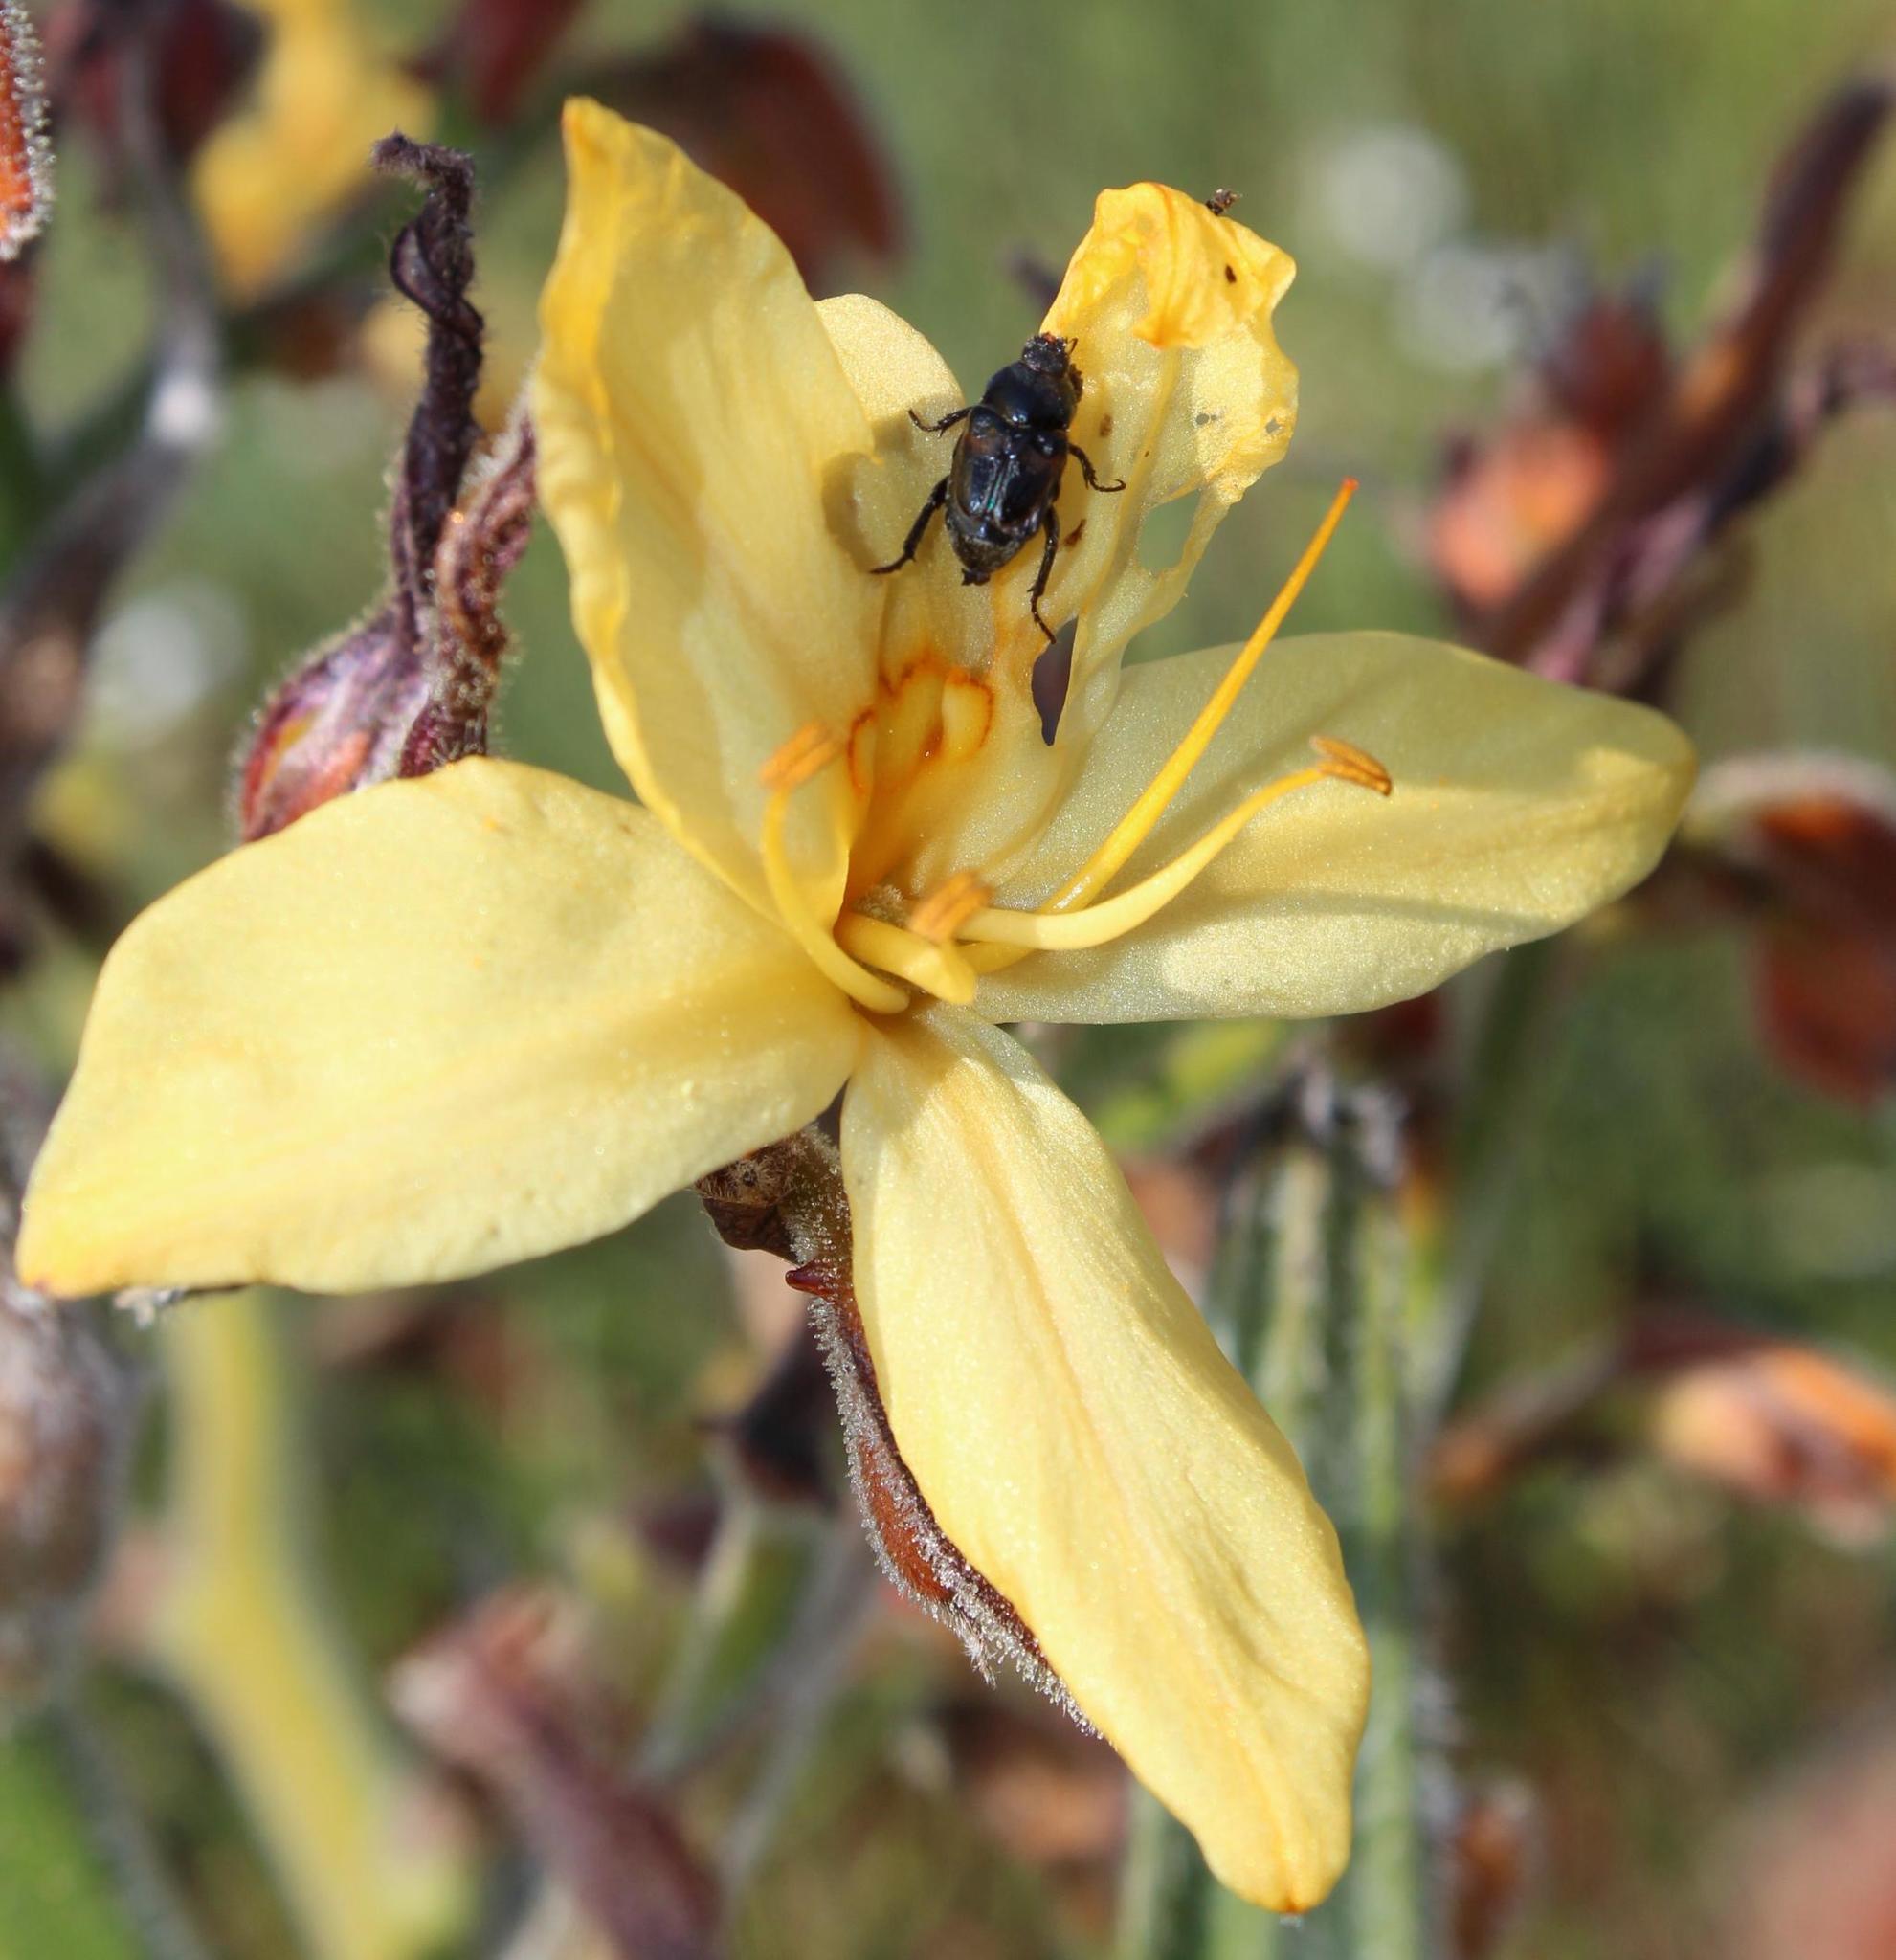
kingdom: Plantae
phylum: Tracheophyta
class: Liliopsida
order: Commelinales
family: Haemodoraceae
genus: Wachendorfia
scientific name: Wachendorfia paniculata
